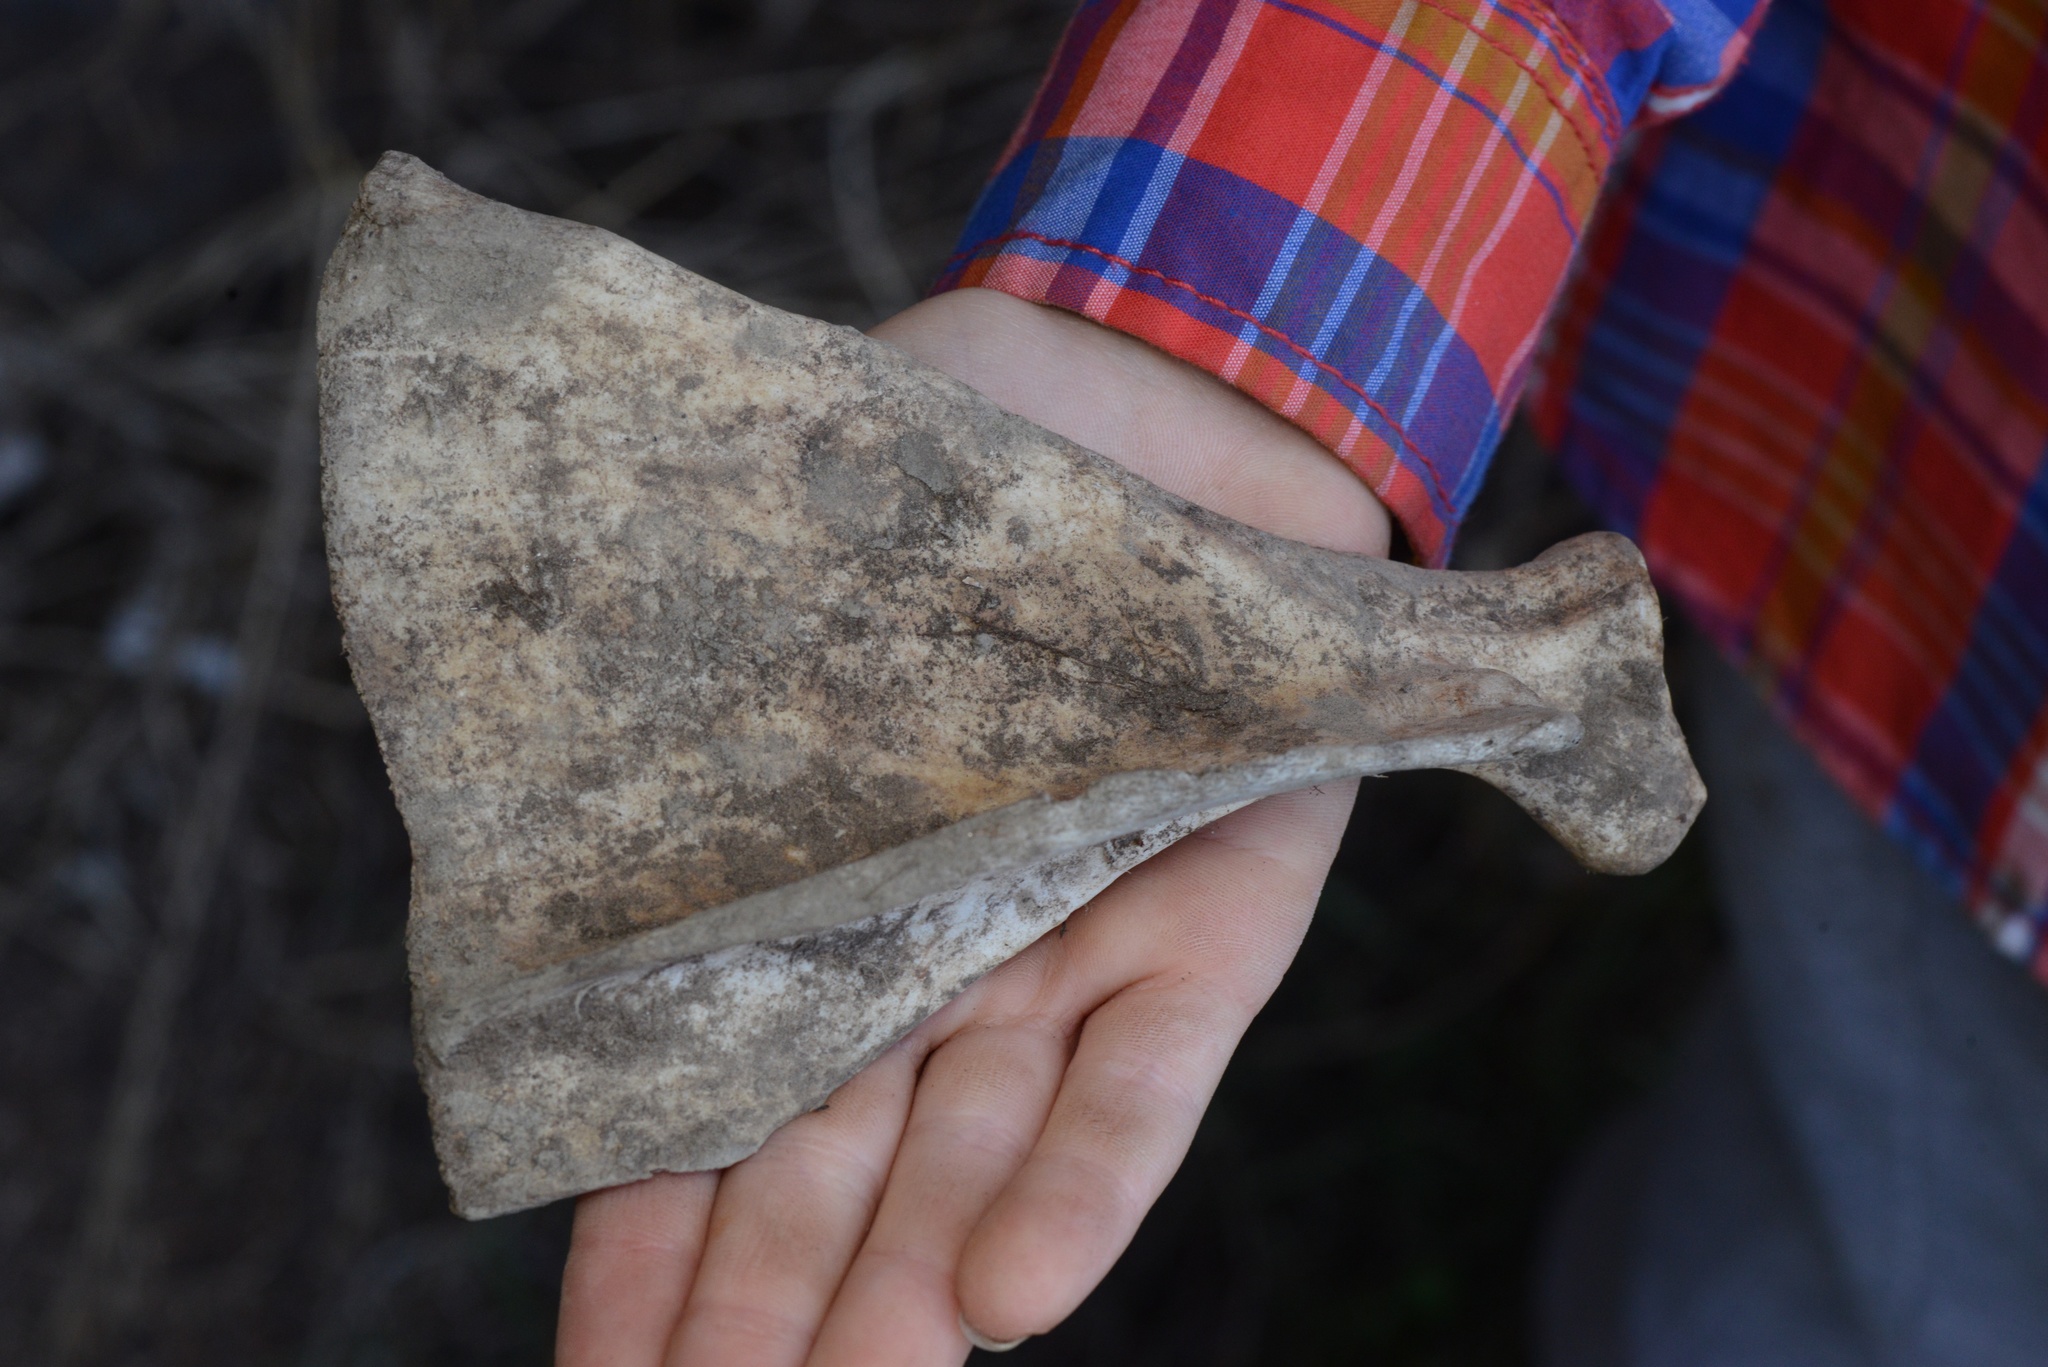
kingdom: Animalia
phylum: Chordata
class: Mammalia
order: Artiodactyla
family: Bovidae
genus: Ovis
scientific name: Ovis aries
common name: Domestic sheep
